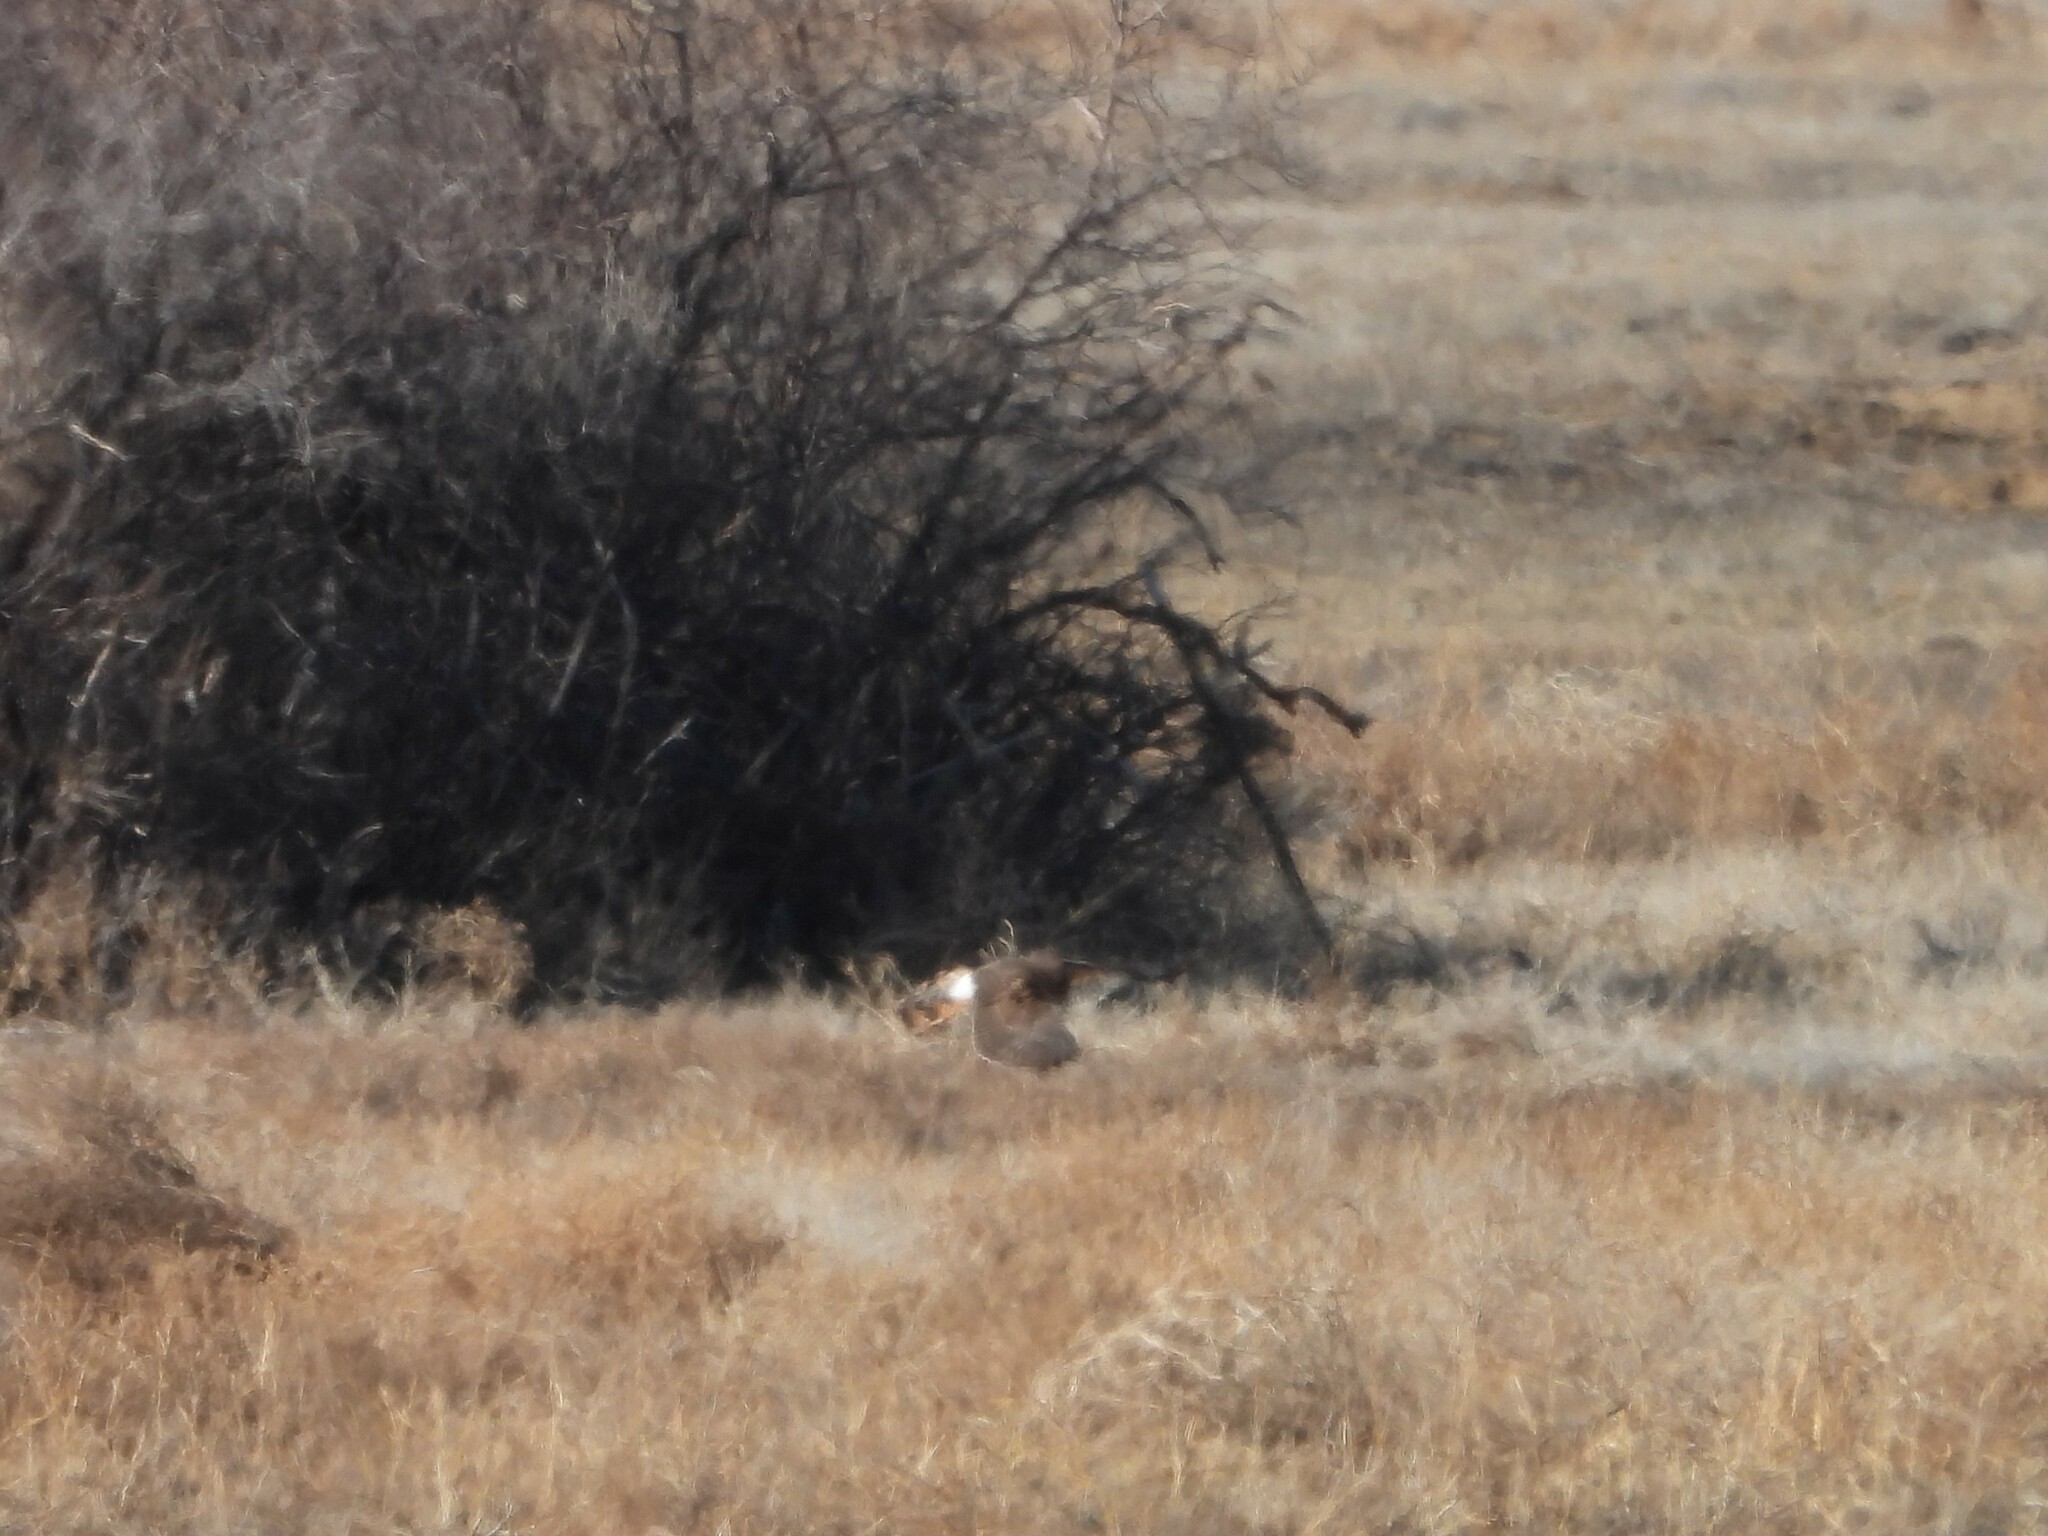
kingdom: Animalia
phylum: Chordata
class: Aves
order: Accipitriformes
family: Accipitridae
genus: Circus
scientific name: Circus cyaneus
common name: Hen harrier
